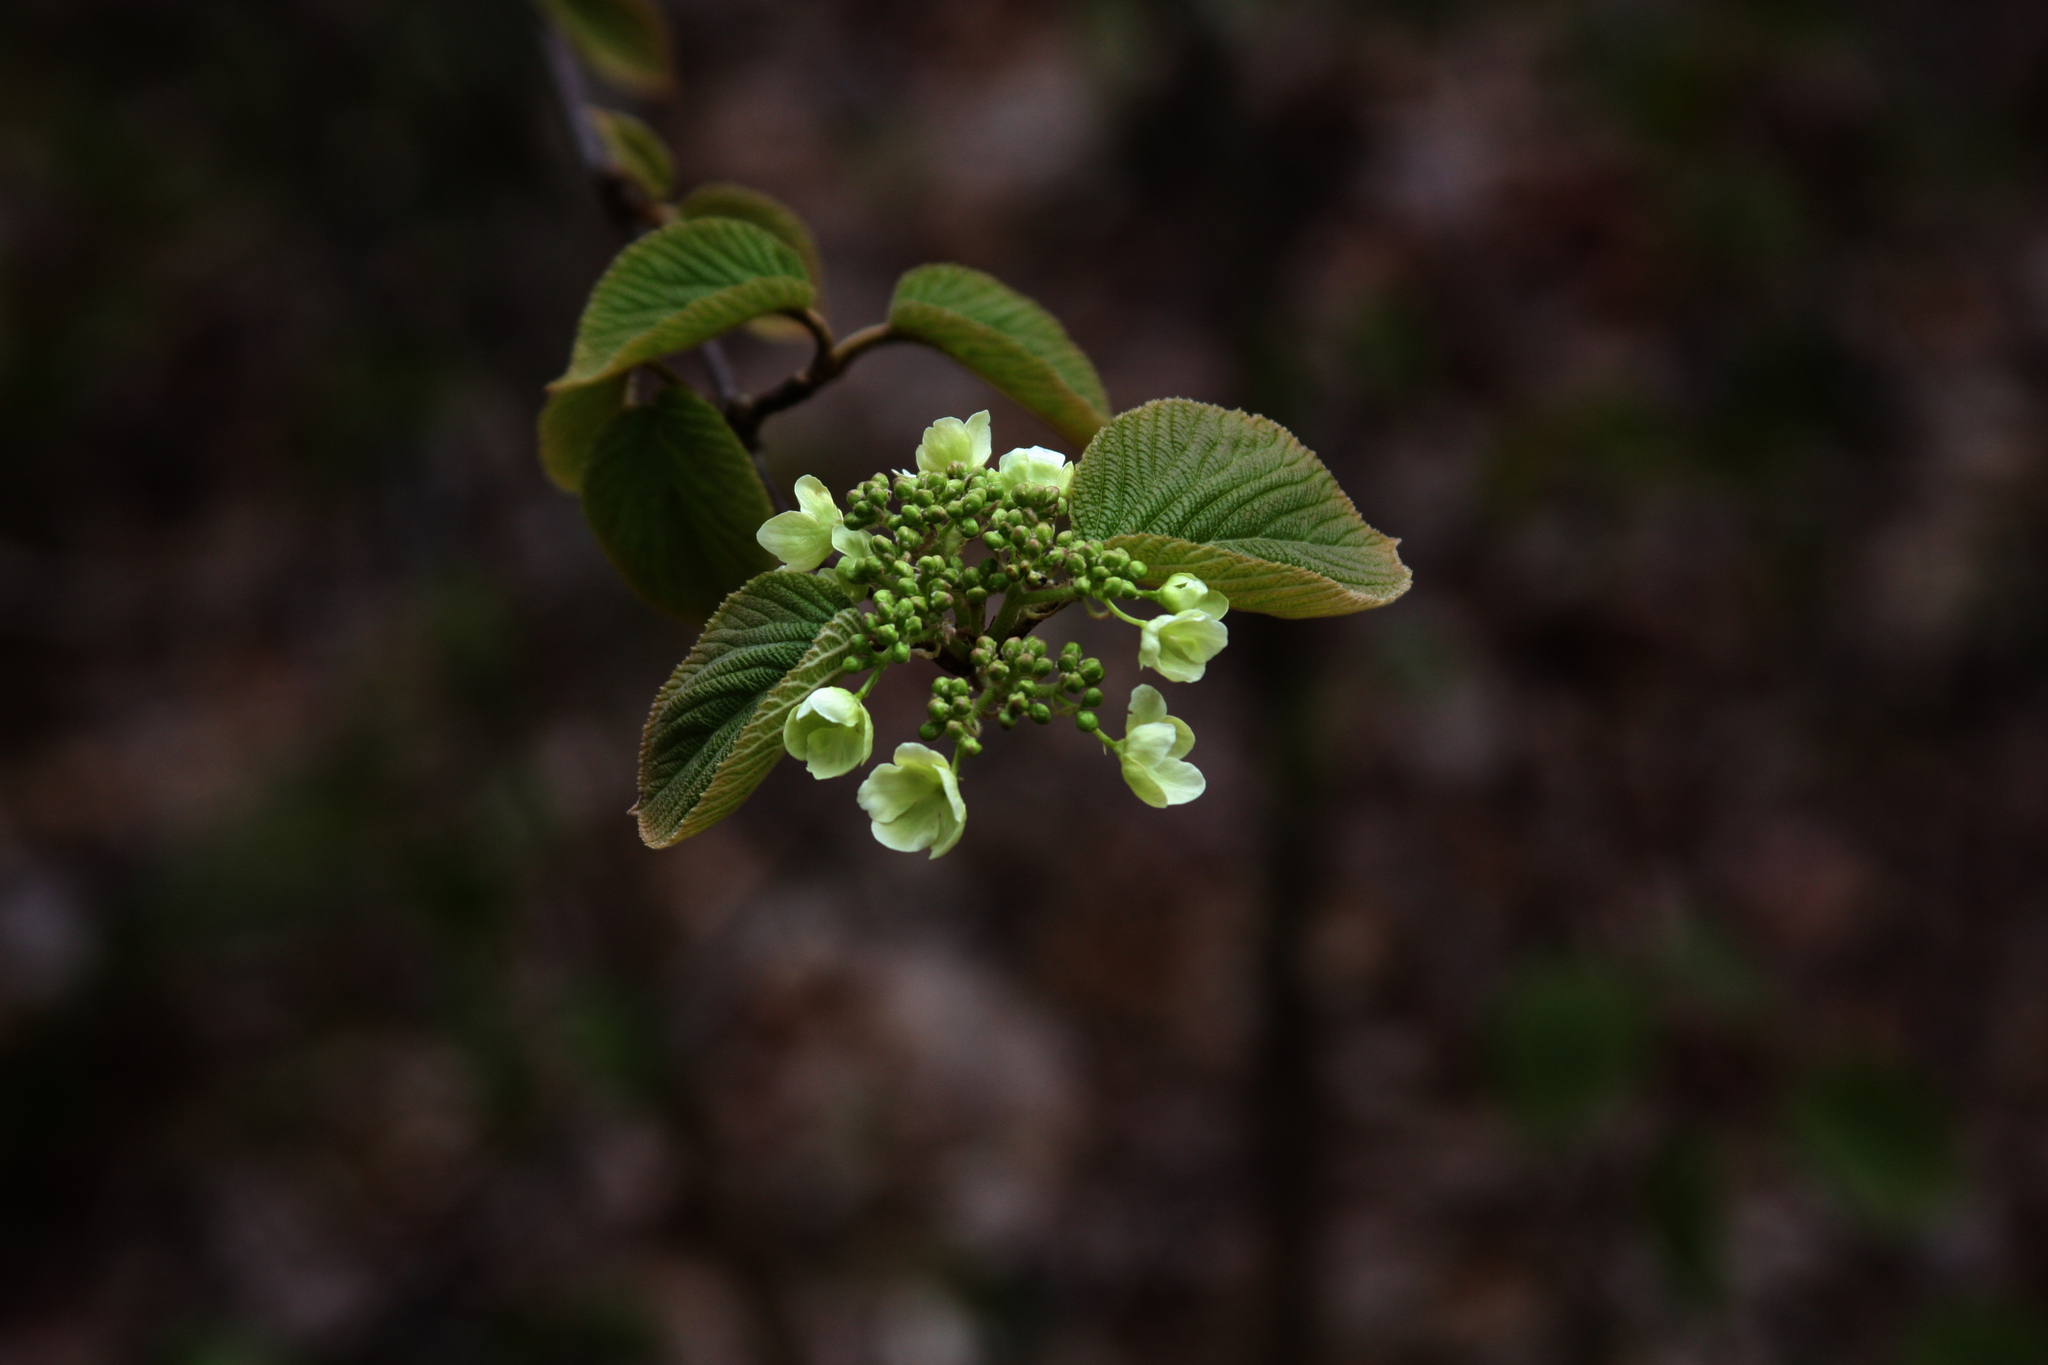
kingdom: Plantae
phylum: Tracheophyta
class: Magnoliopsida
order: Dipsacales
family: Viburnaceae
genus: Viburnum
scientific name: Viburnum lantanoides
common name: Hobblebush
